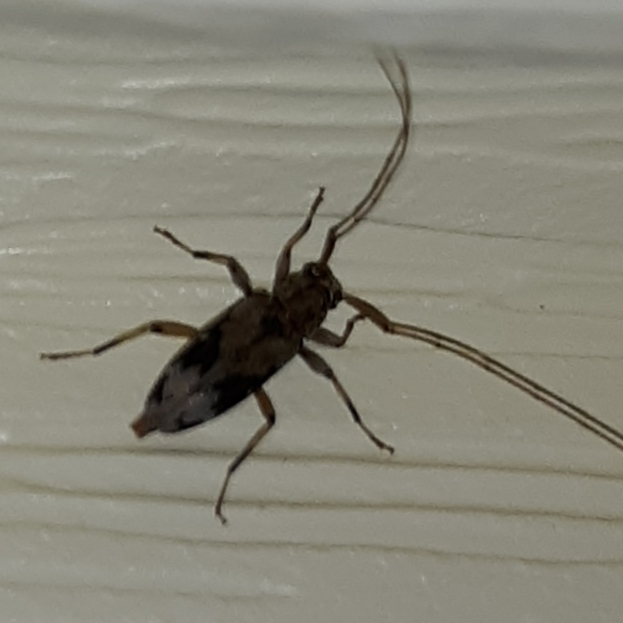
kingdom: Animalia
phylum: Arthropoda
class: Insecta
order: Coleoptera
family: Cerambycidae
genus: Lepturges
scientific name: Lepturges angulatus
